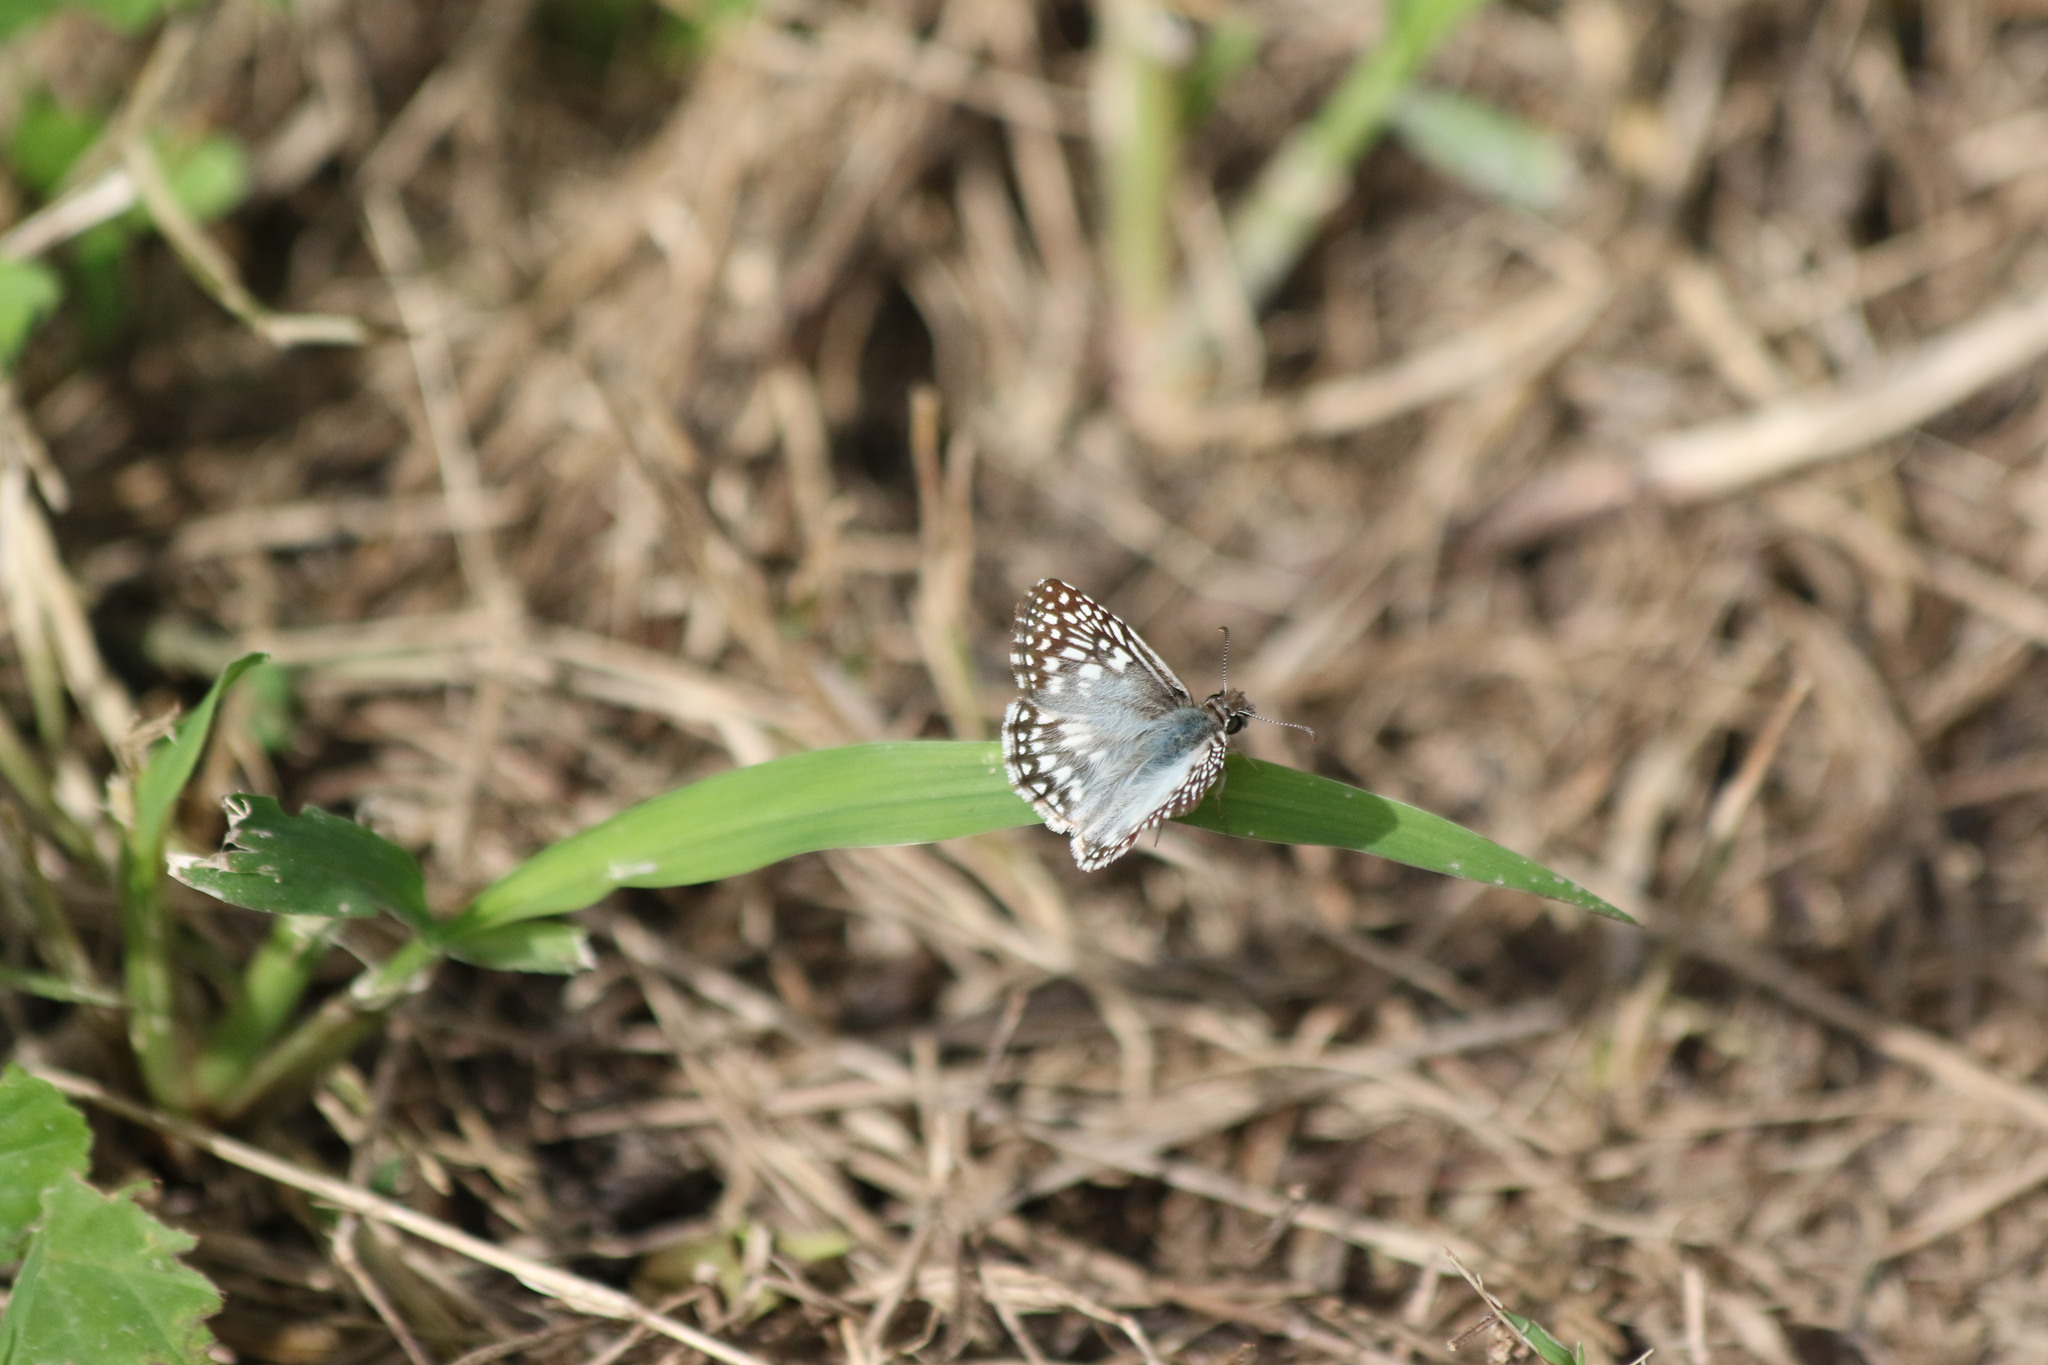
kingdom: Animalia
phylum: Arthropoda
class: Insecta
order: Lepidoptera
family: Hesperiidae
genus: Pyrgus
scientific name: Pyrgus oileus
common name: Tropical checkered-skipper
